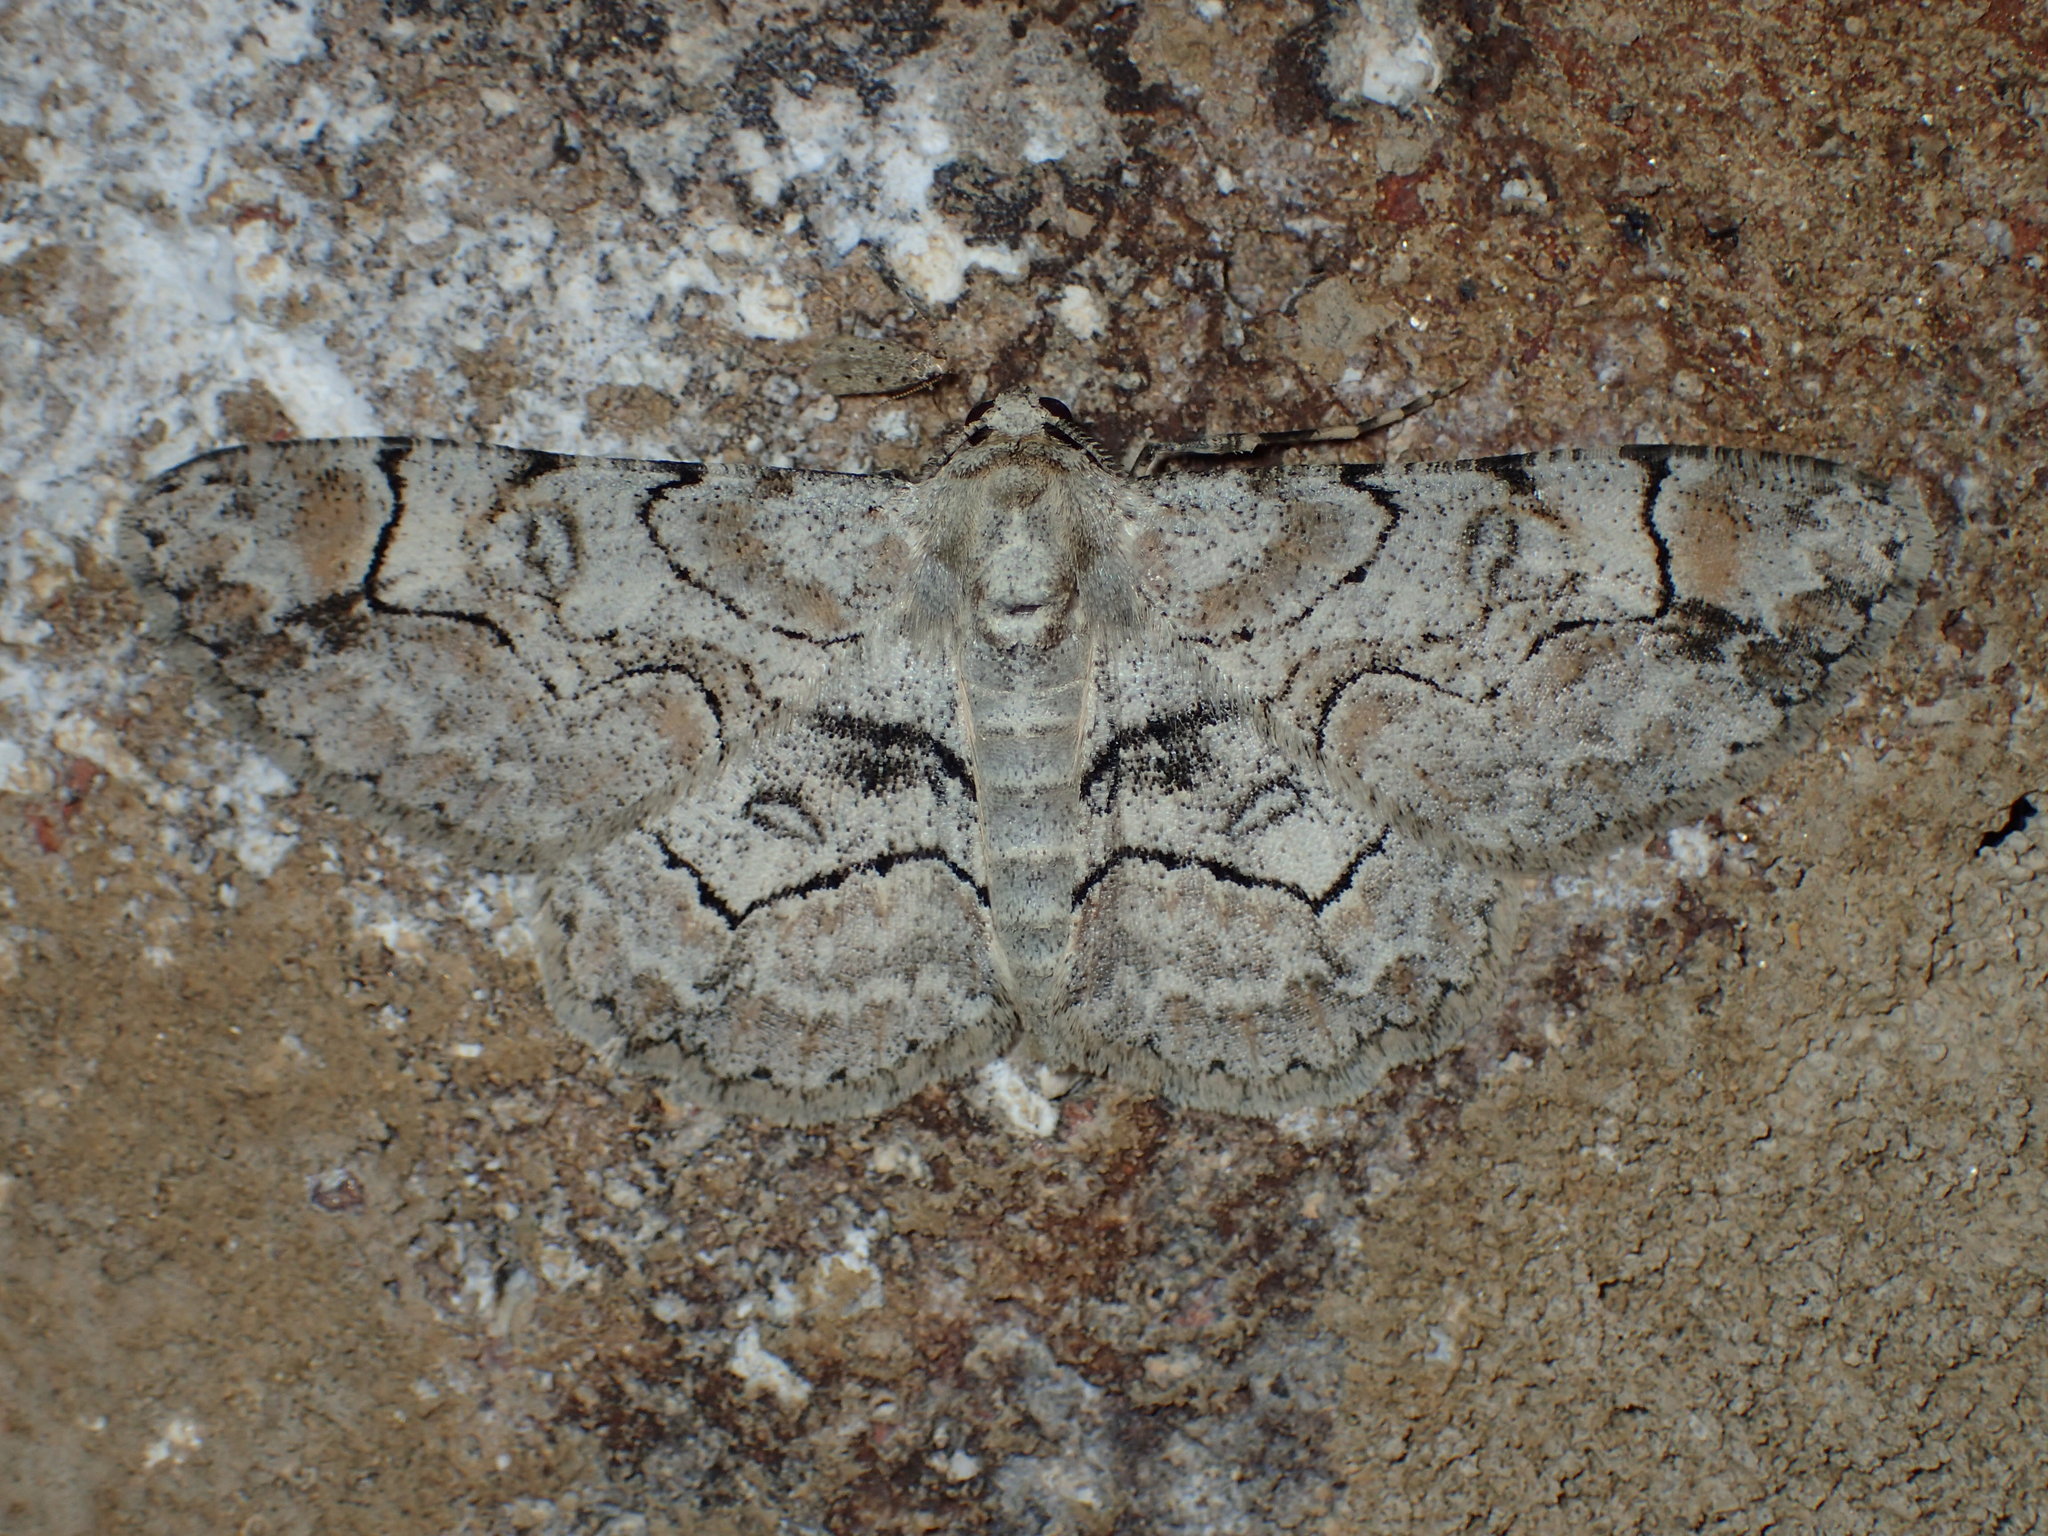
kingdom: Animalia
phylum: Arthropoda
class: Insecta
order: Lepidoptera
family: Geometridae
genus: Iridopsis
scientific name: Iridopsis larvaria
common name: Bent-line gray
